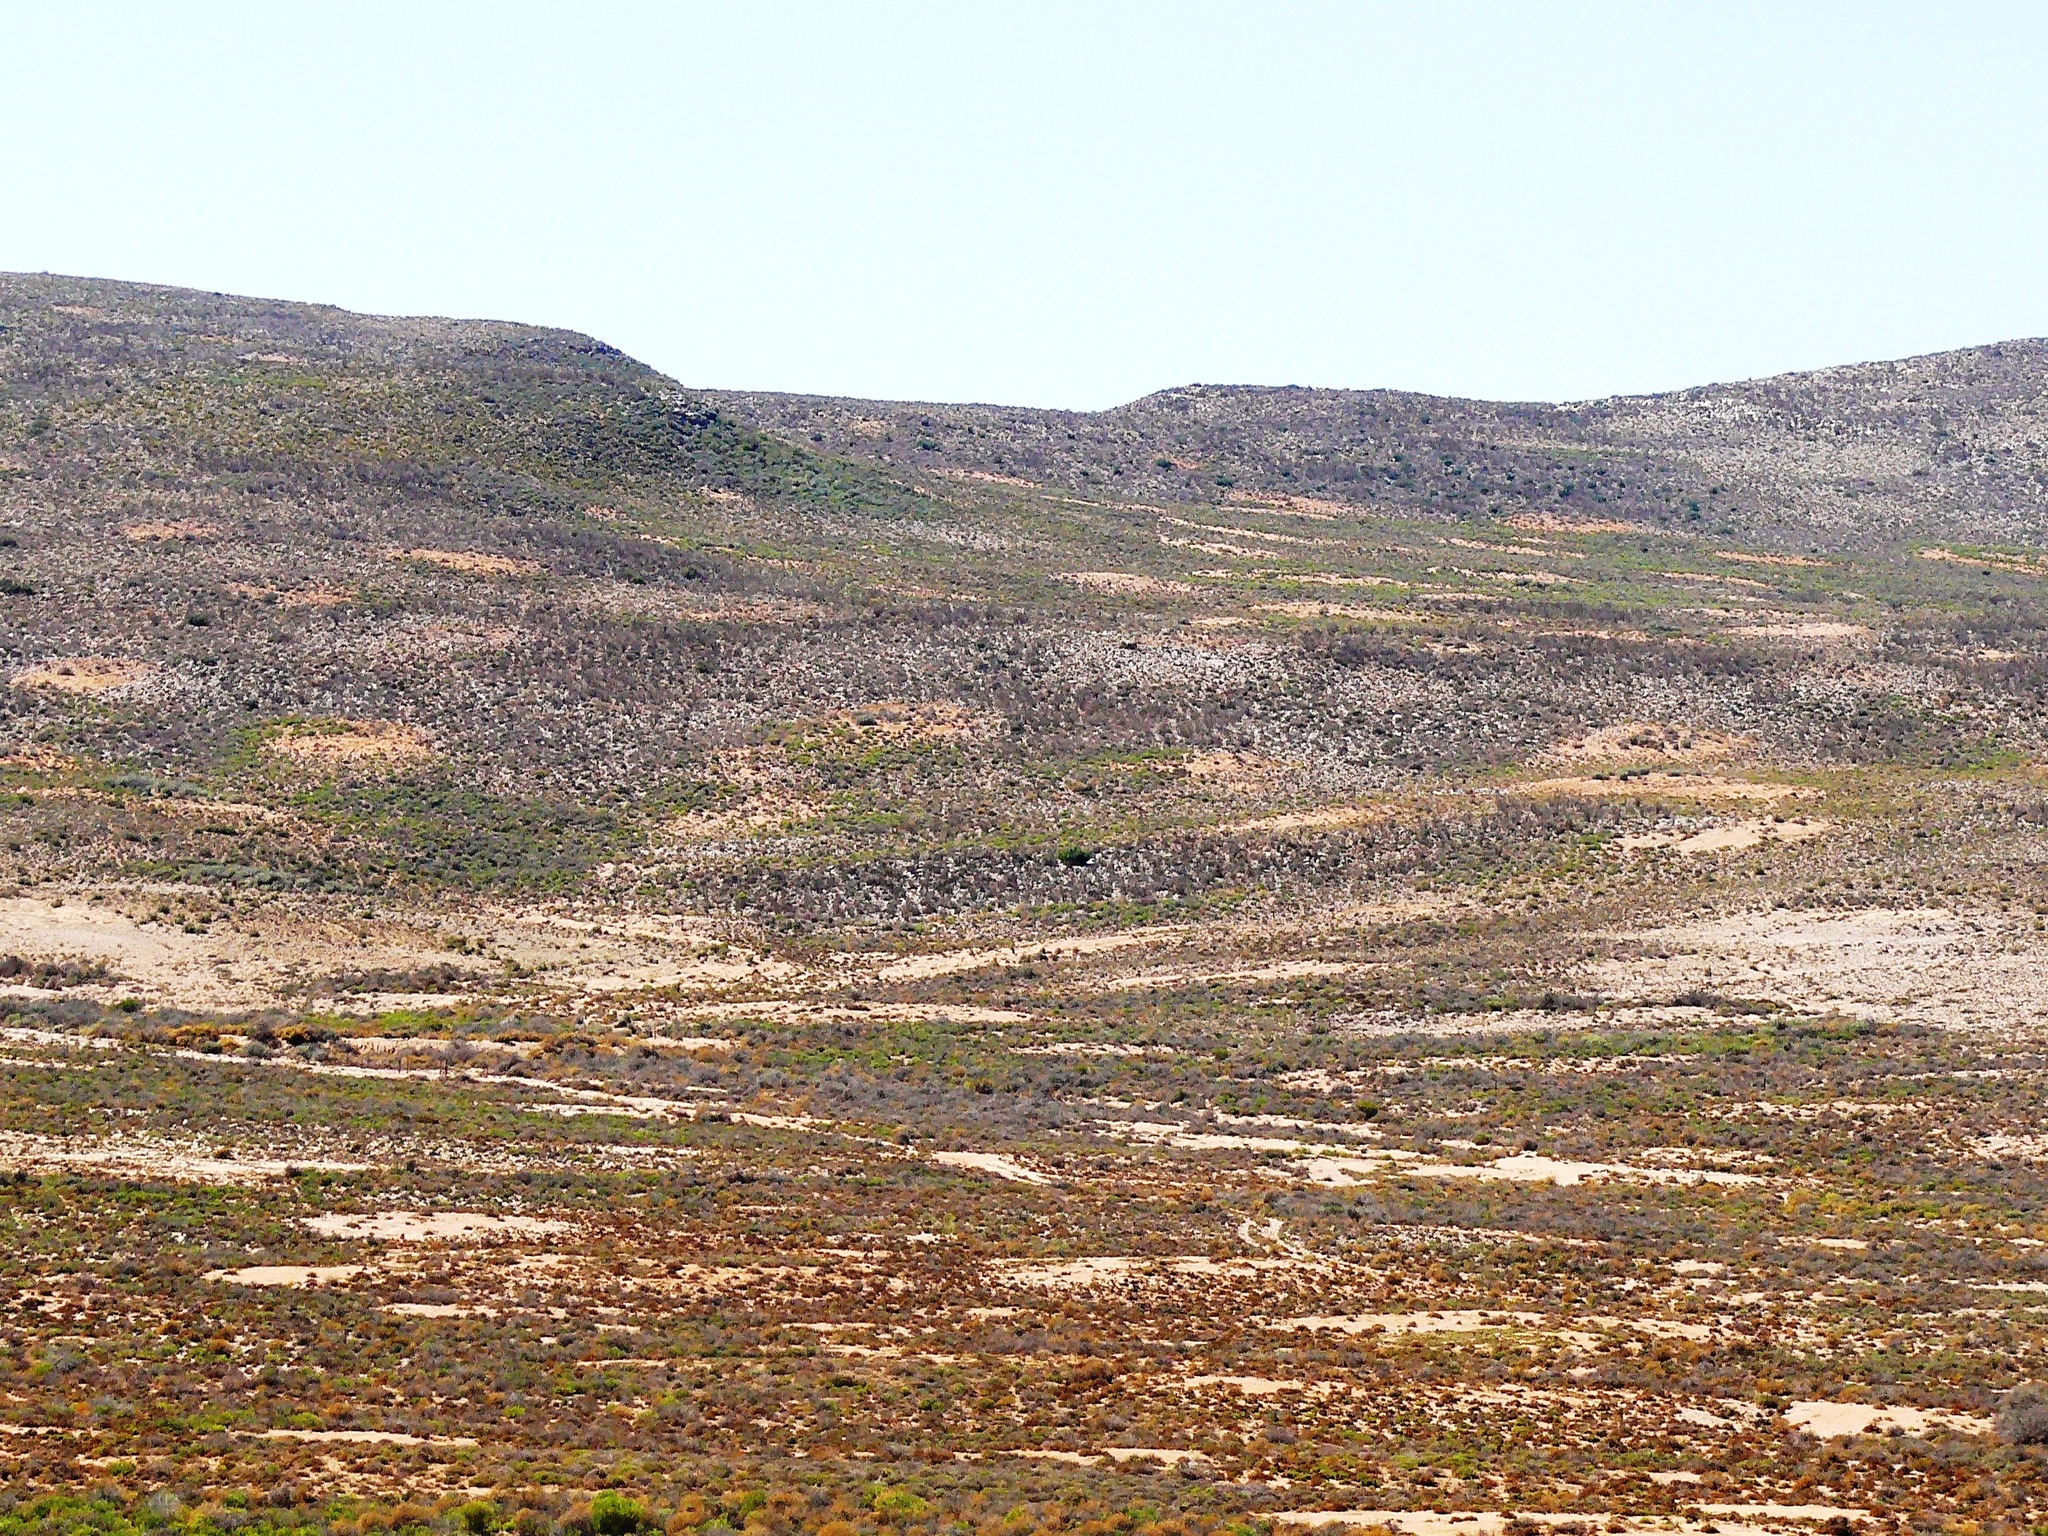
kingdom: Animalia
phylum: Arthropoda
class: Insecta
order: Blattodea
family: Hodotermitidae
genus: Microhodotermes
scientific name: Microhodotermes viator
